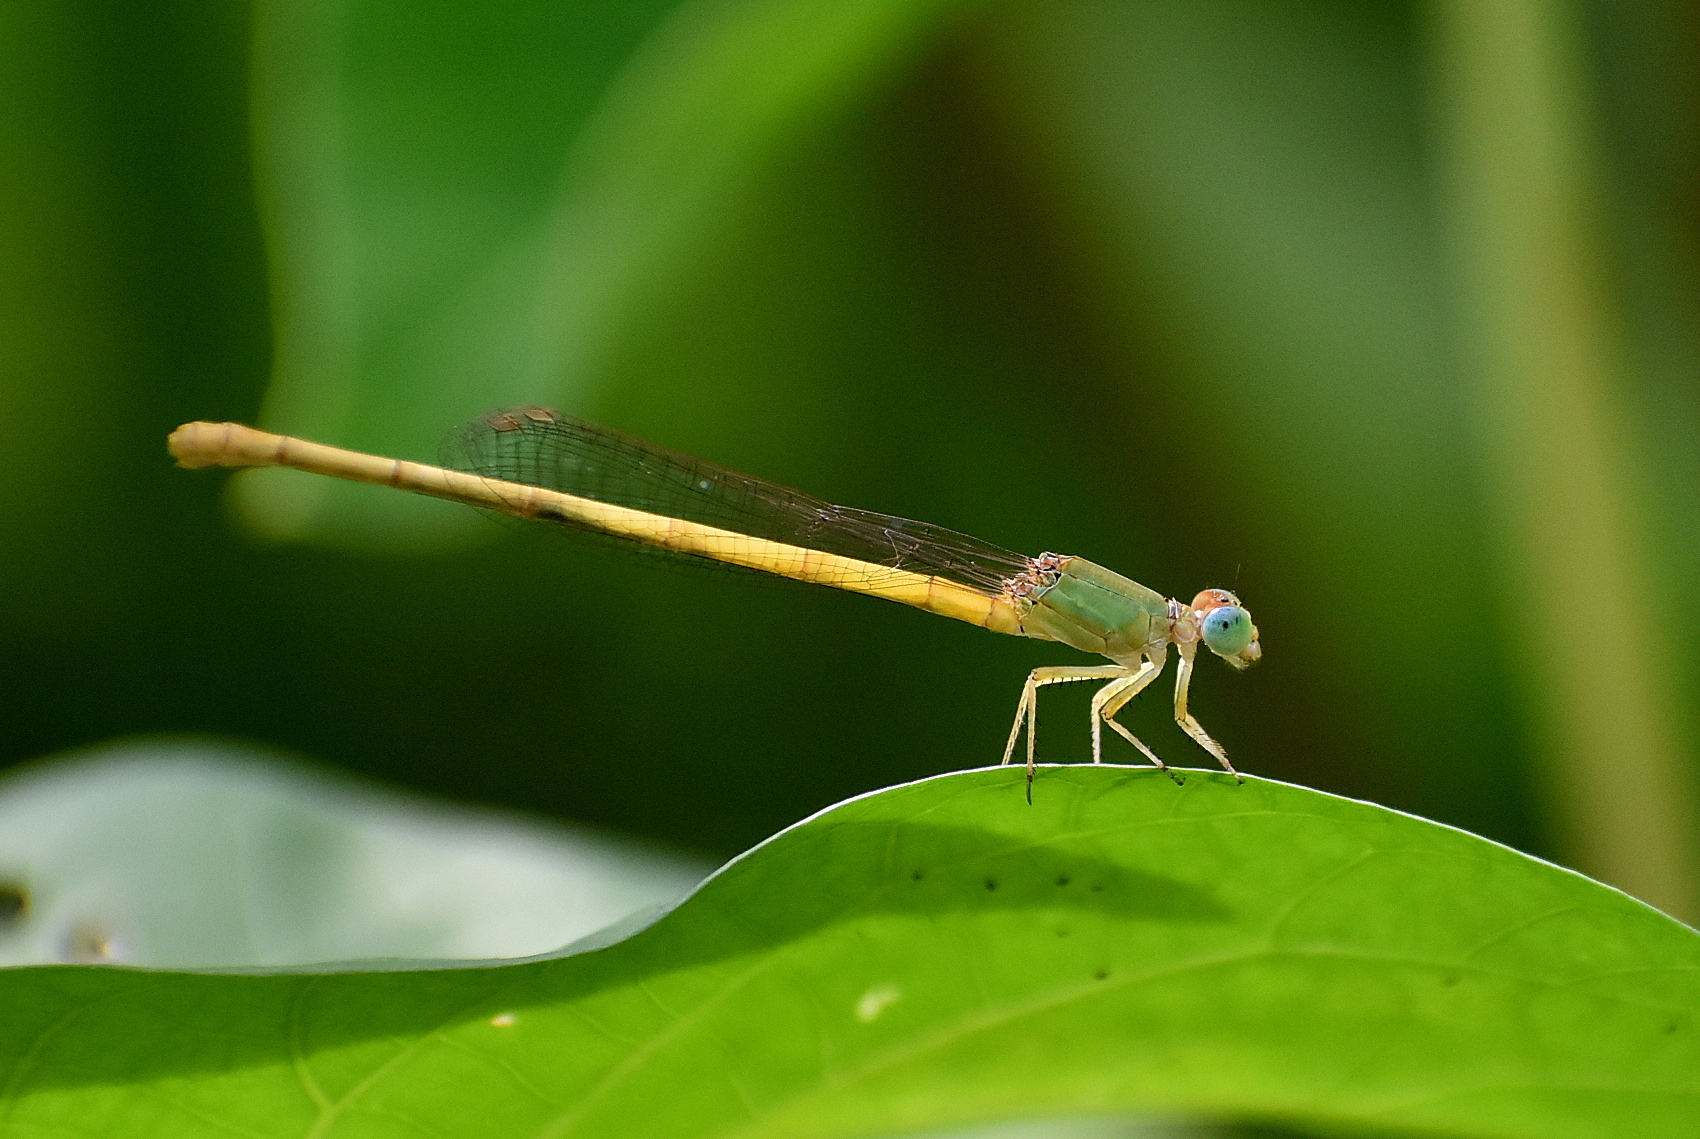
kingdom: Animalia
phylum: Arthropoda
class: Insecta
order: Odonata
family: Coenagrionidae
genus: Ceriagrion
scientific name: Ceriagrion coromandelianum
